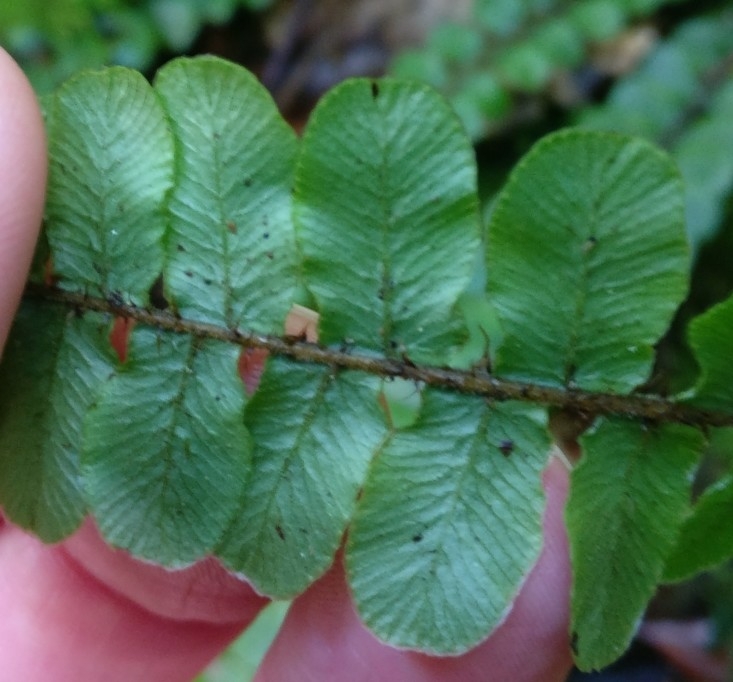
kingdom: Plantae
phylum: Tracheophyta
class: Polypodiopsida
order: Polypodiales
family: Blechnaceae
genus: Cranfillia
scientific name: Cranfillia fluviatilis
